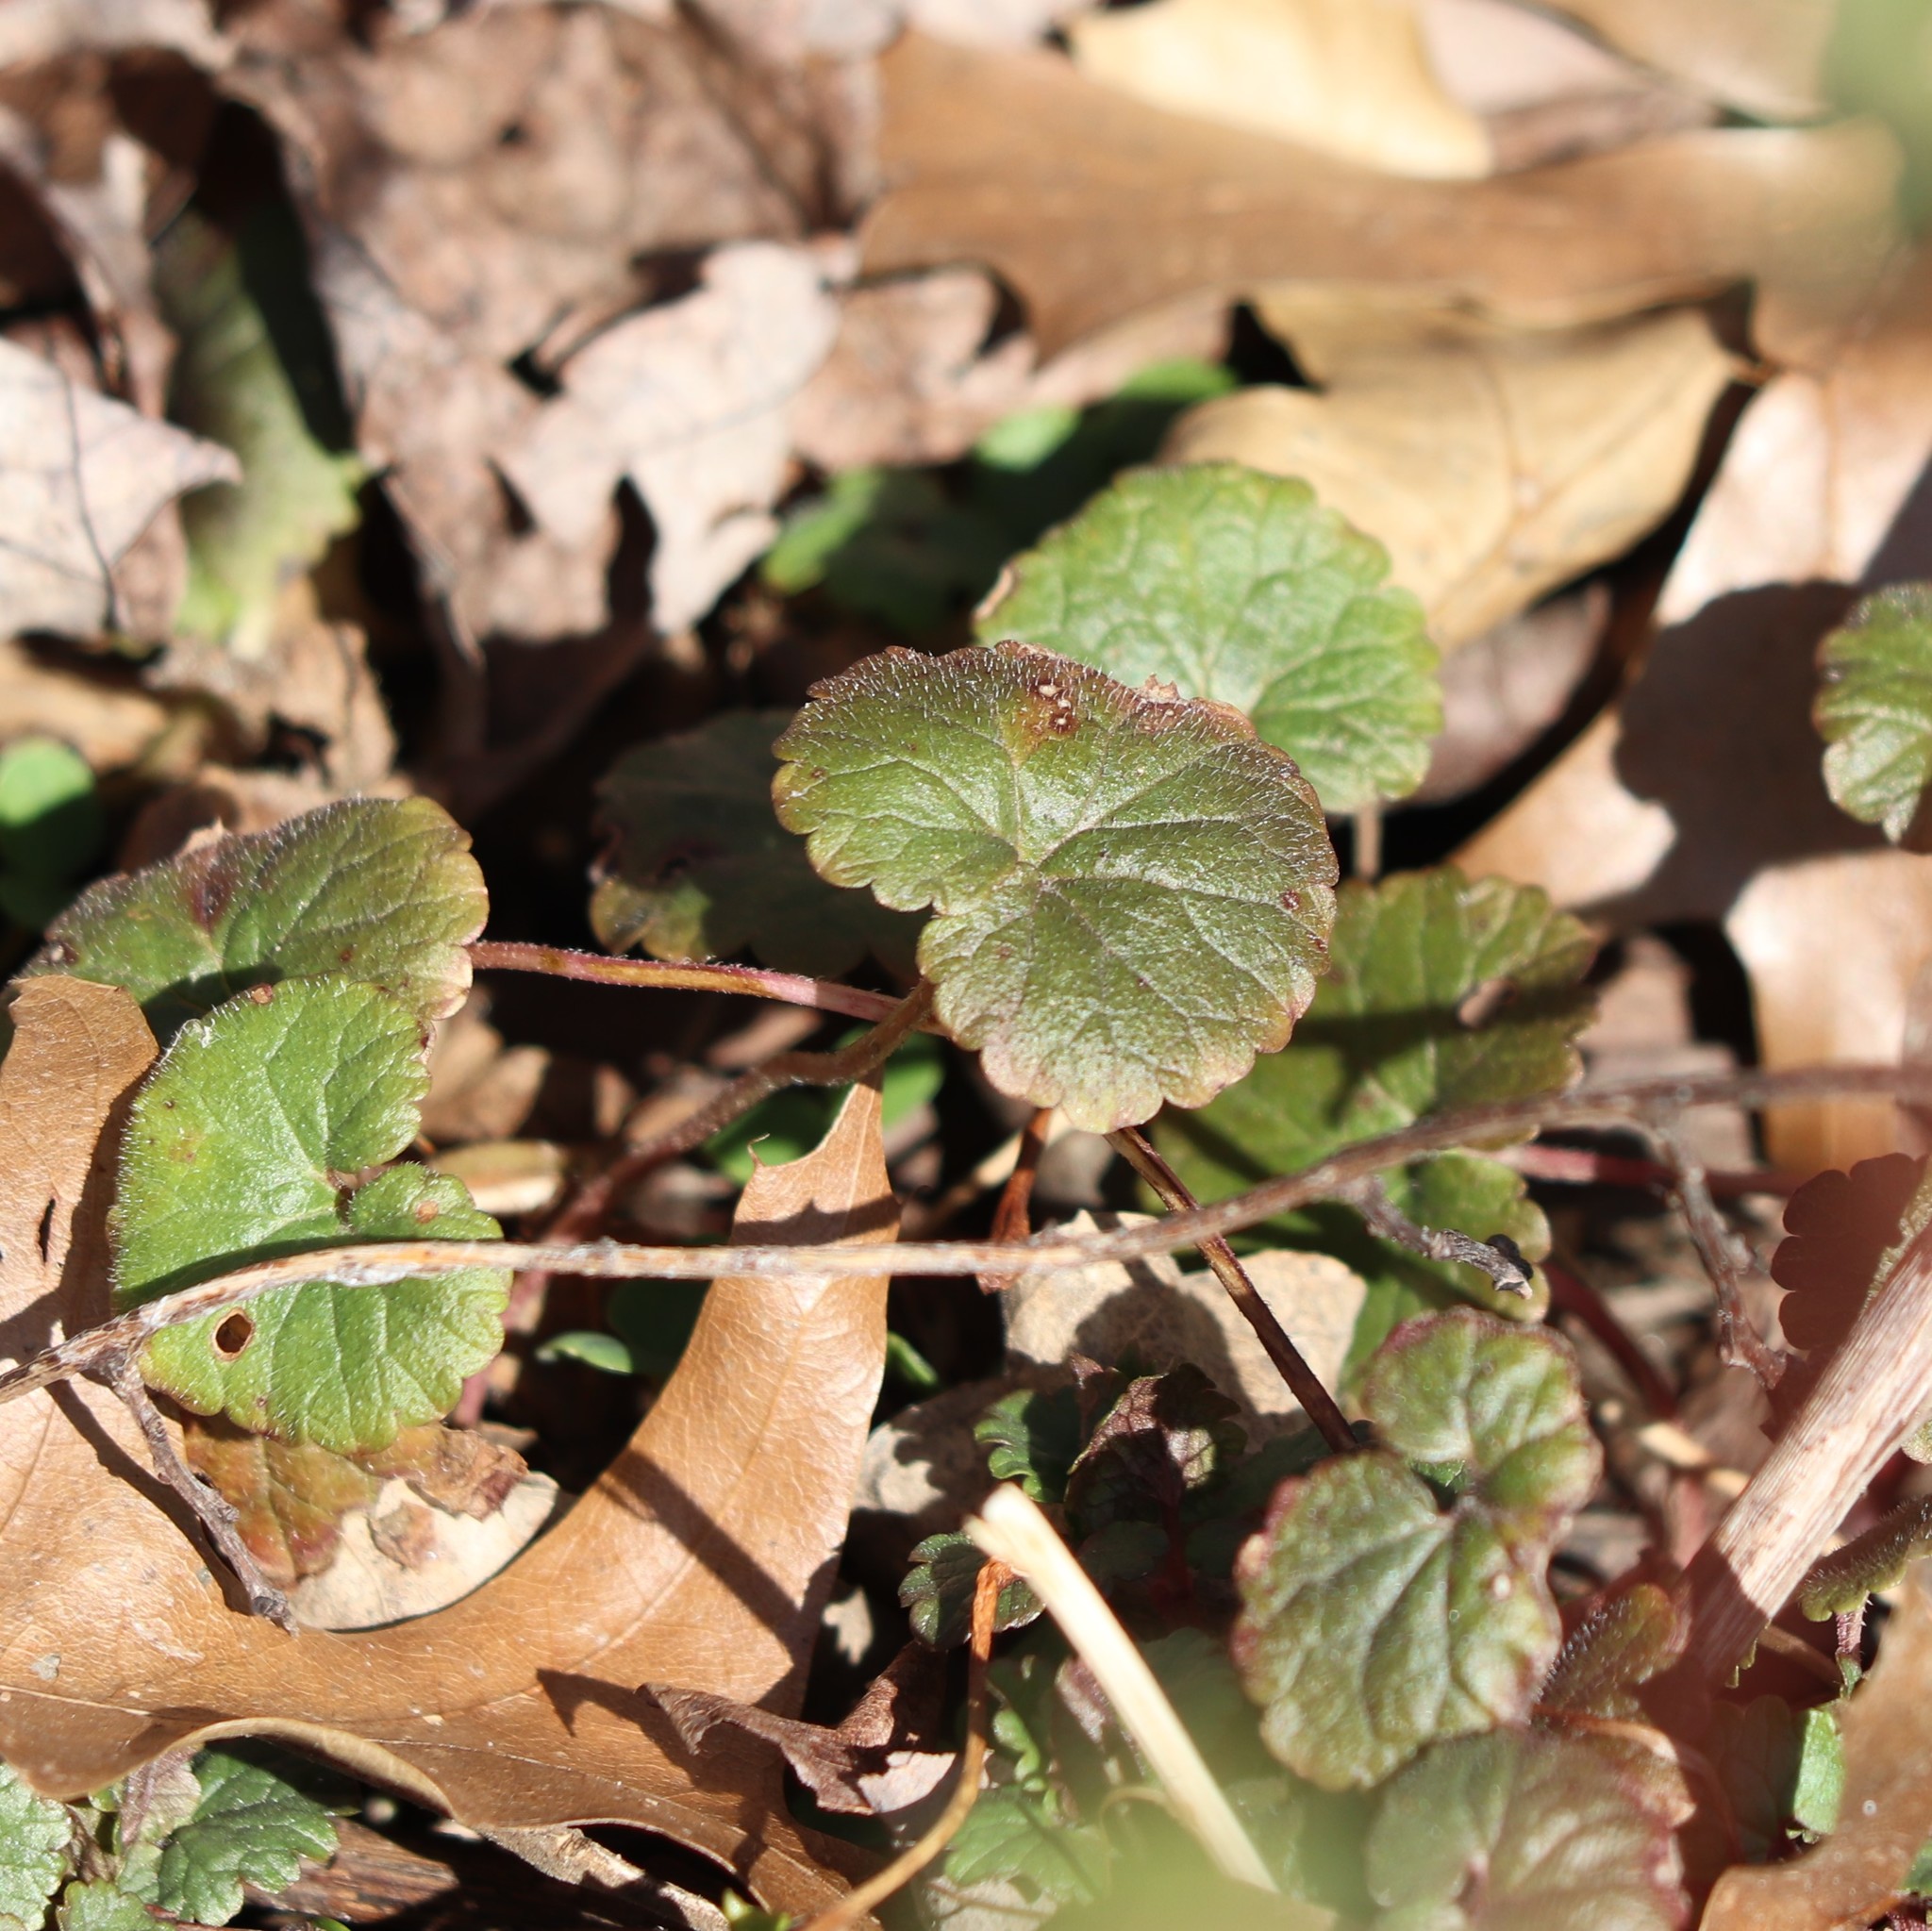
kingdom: Plantae
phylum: Tracheophyta
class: Magnoliopsida
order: Lamiales
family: Lamiaceae
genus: Glechoma
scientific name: Glechoma hederacea
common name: Ground ivy
